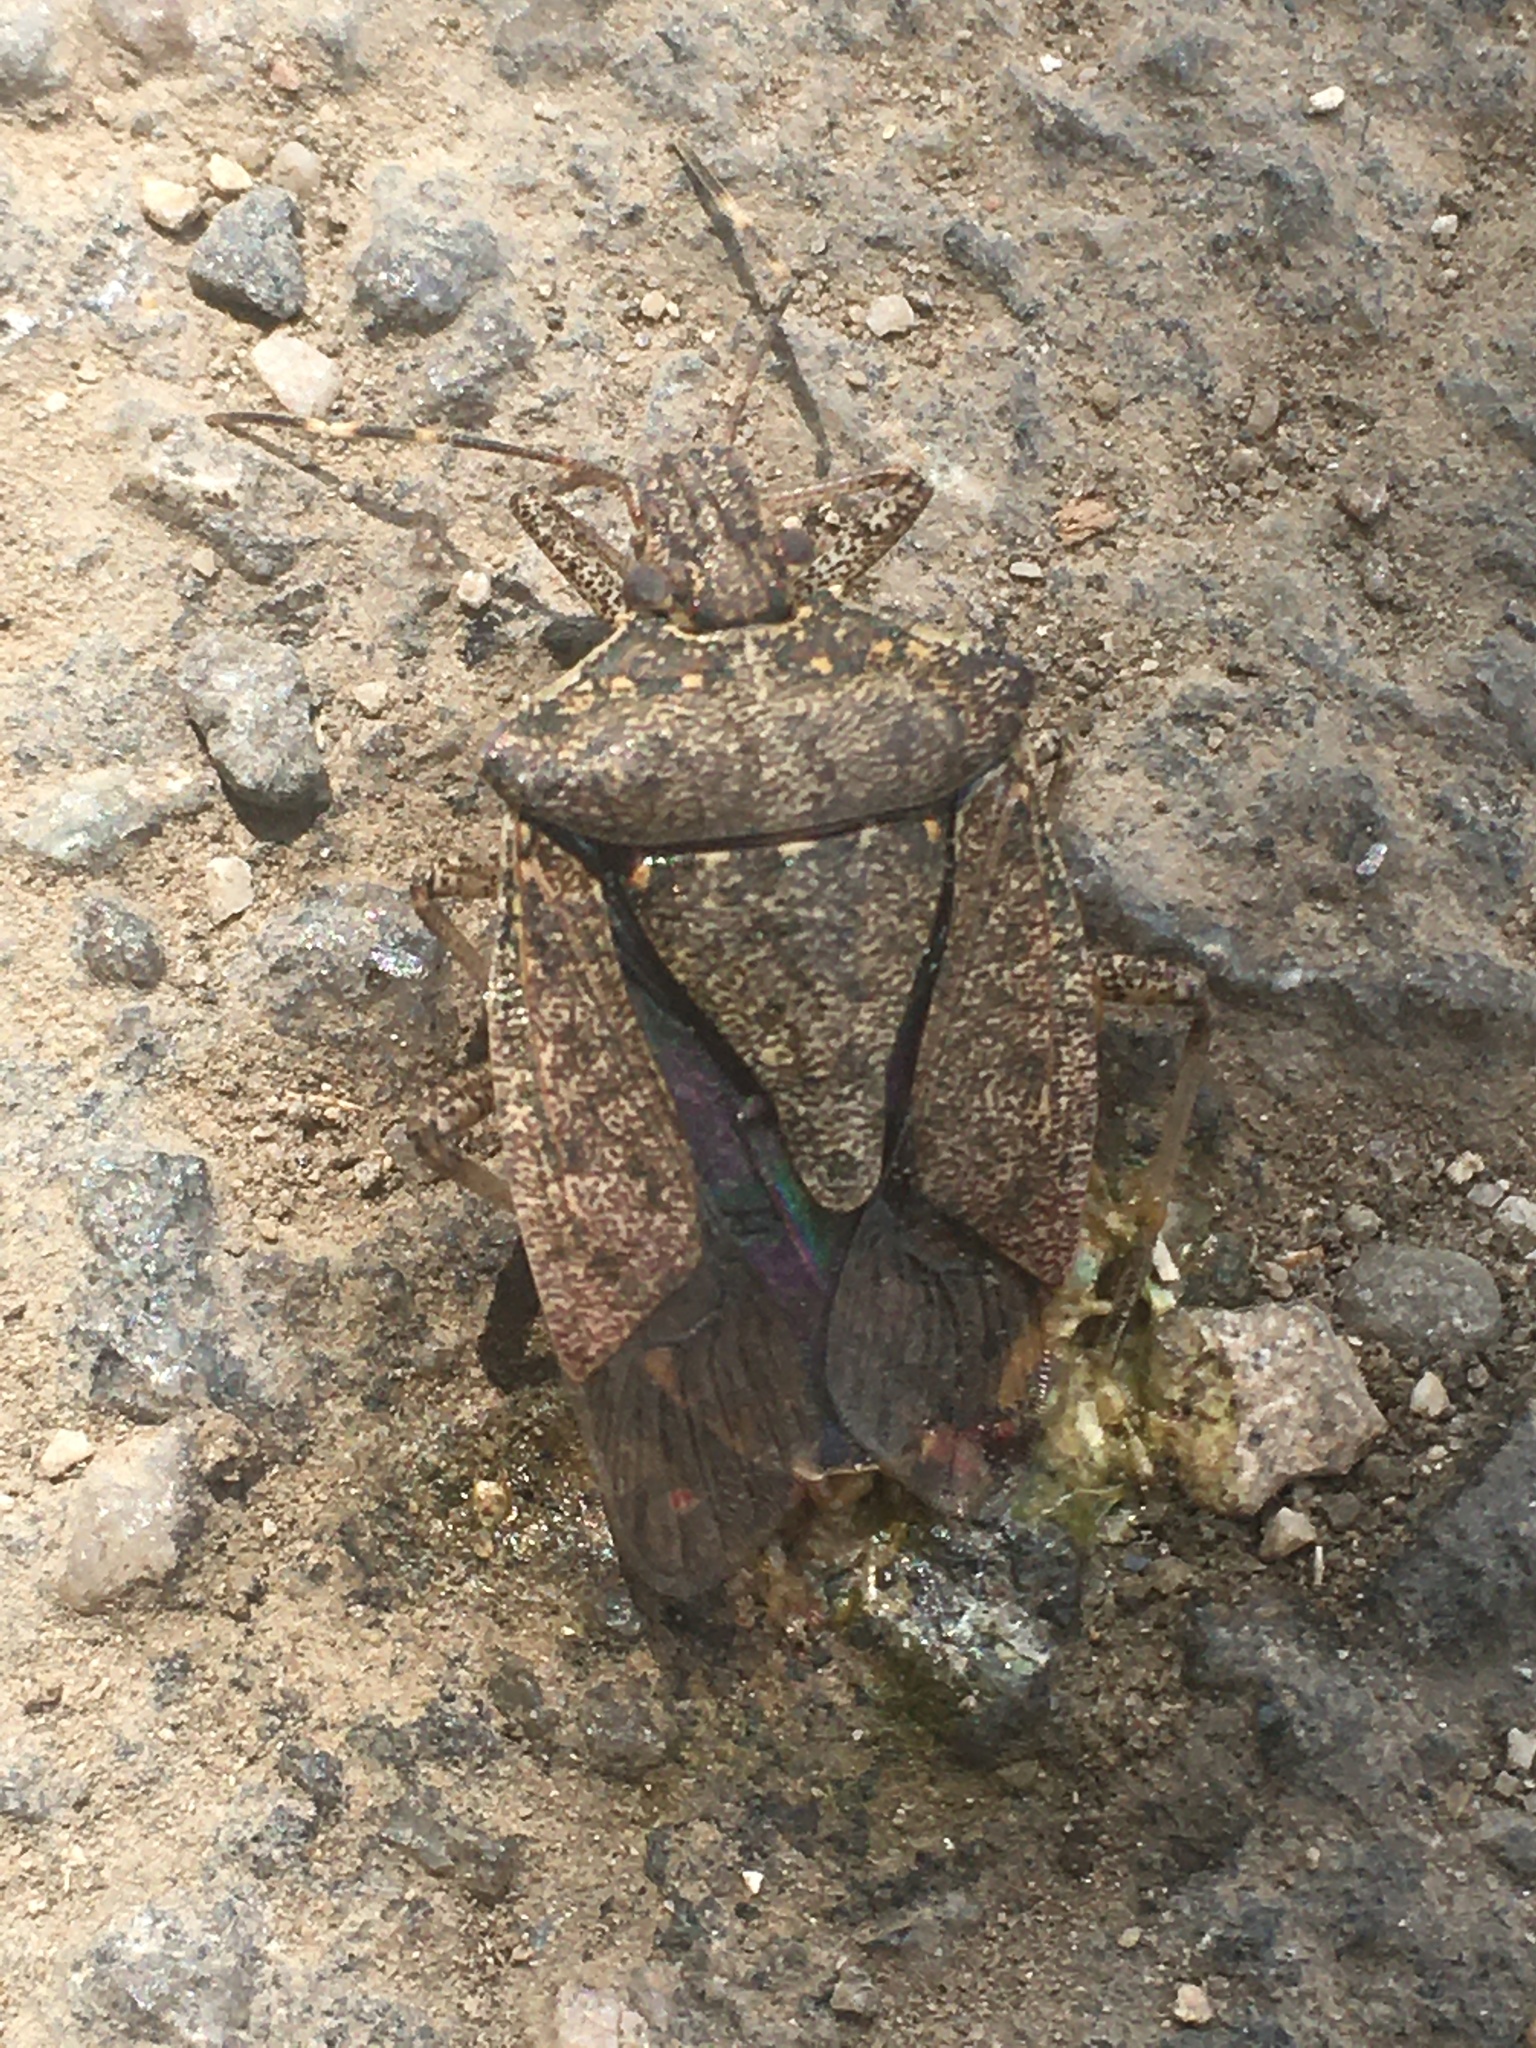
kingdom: Animalia
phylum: Arthropoda
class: Insecta
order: Hemiptera
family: Pentatomidae
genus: Halyomorpha
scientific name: Halyomorpha halys
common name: Brown marmorated stink bug
